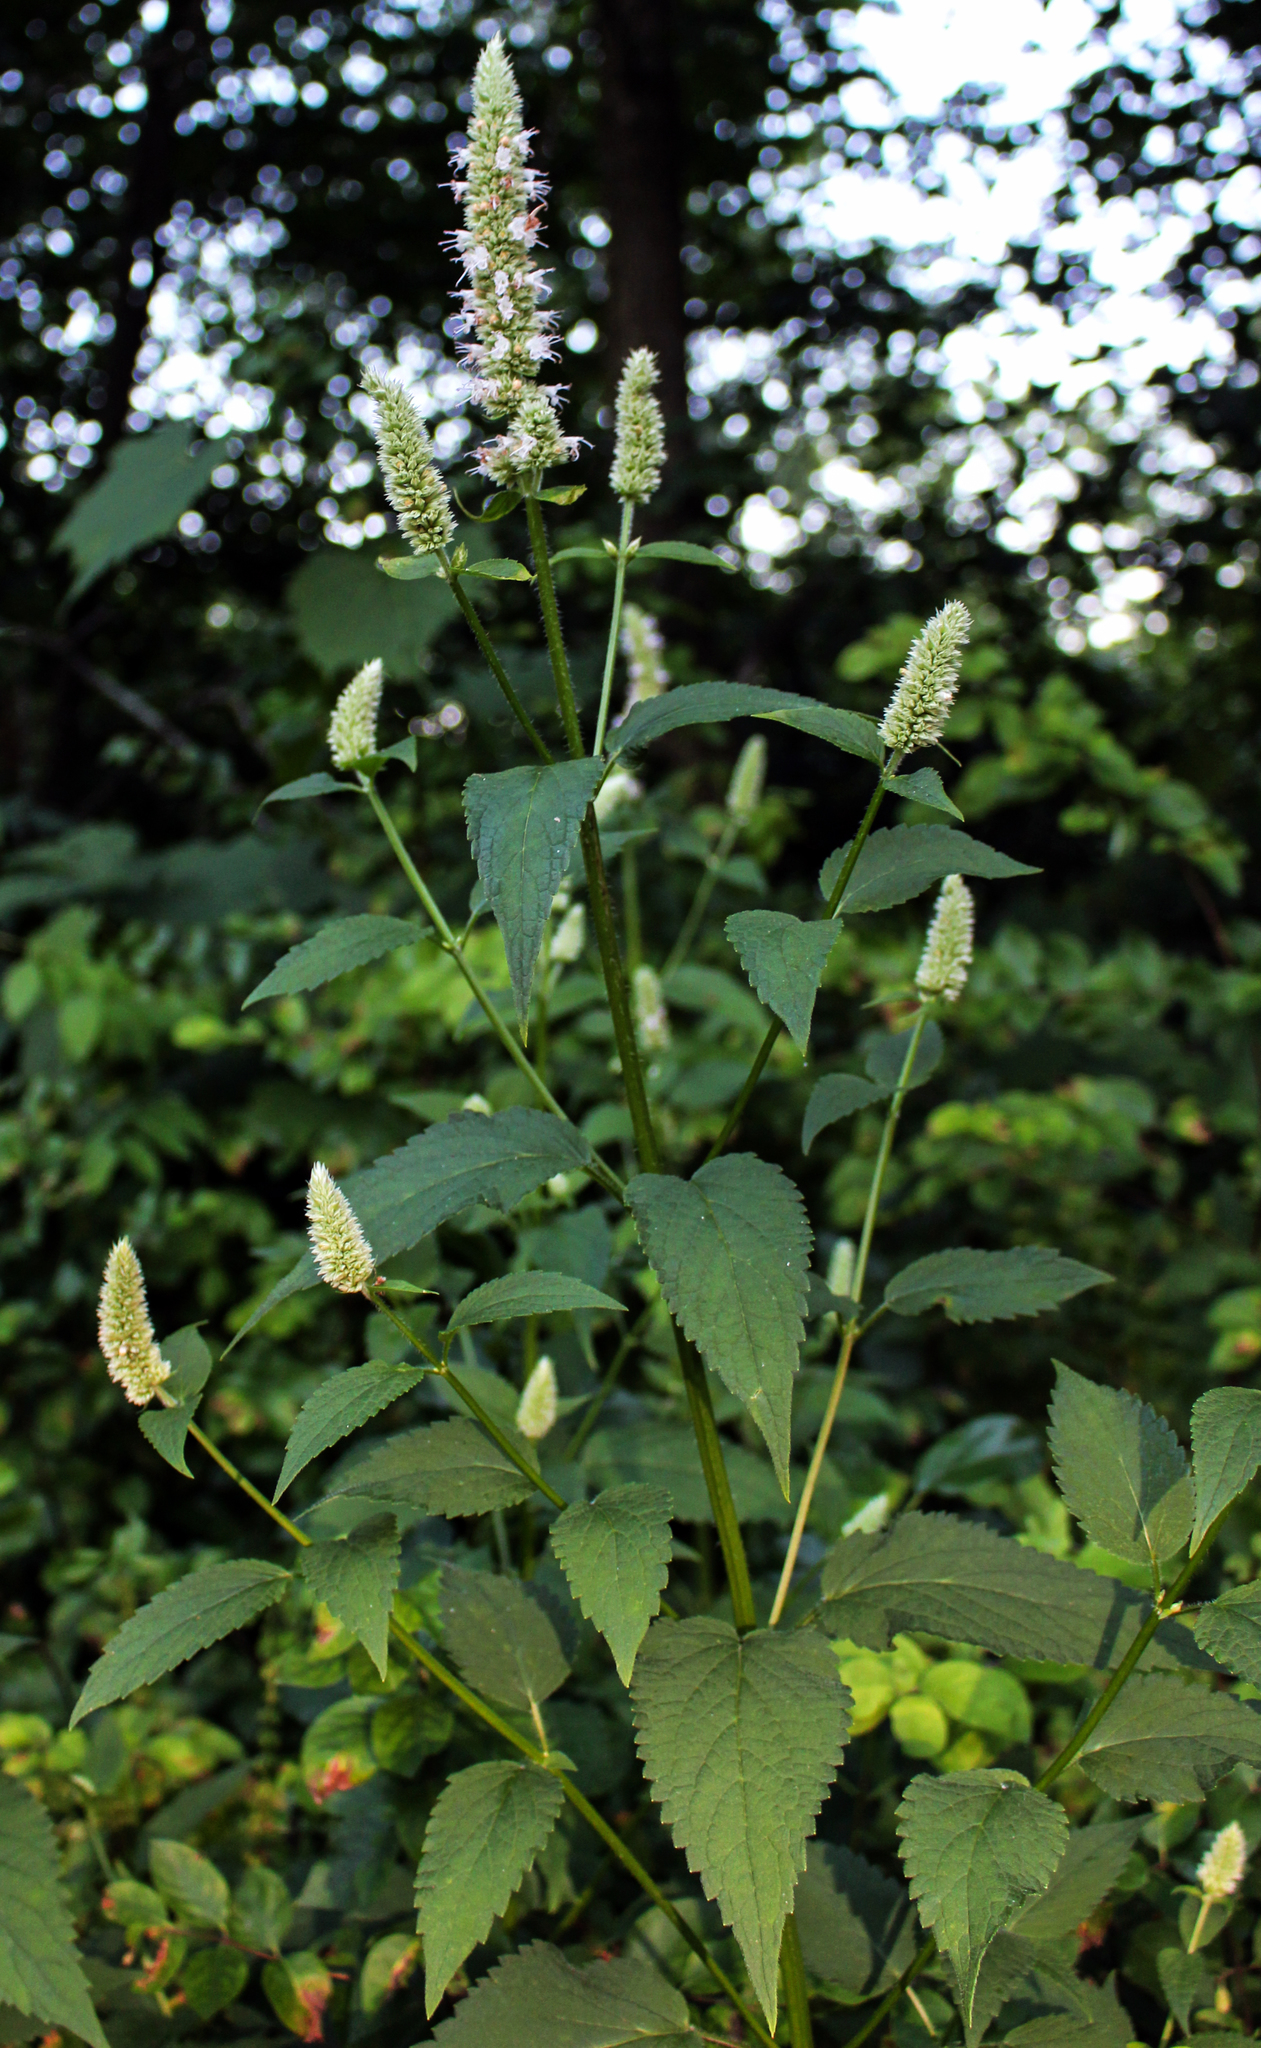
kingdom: Plantae
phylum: Tracheophyta
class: Magnoliopsida
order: Lamiales
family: Lamiaceae
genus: Agastache
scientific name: Agastache scrophulariifolia
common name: Figwort giant hyssop
